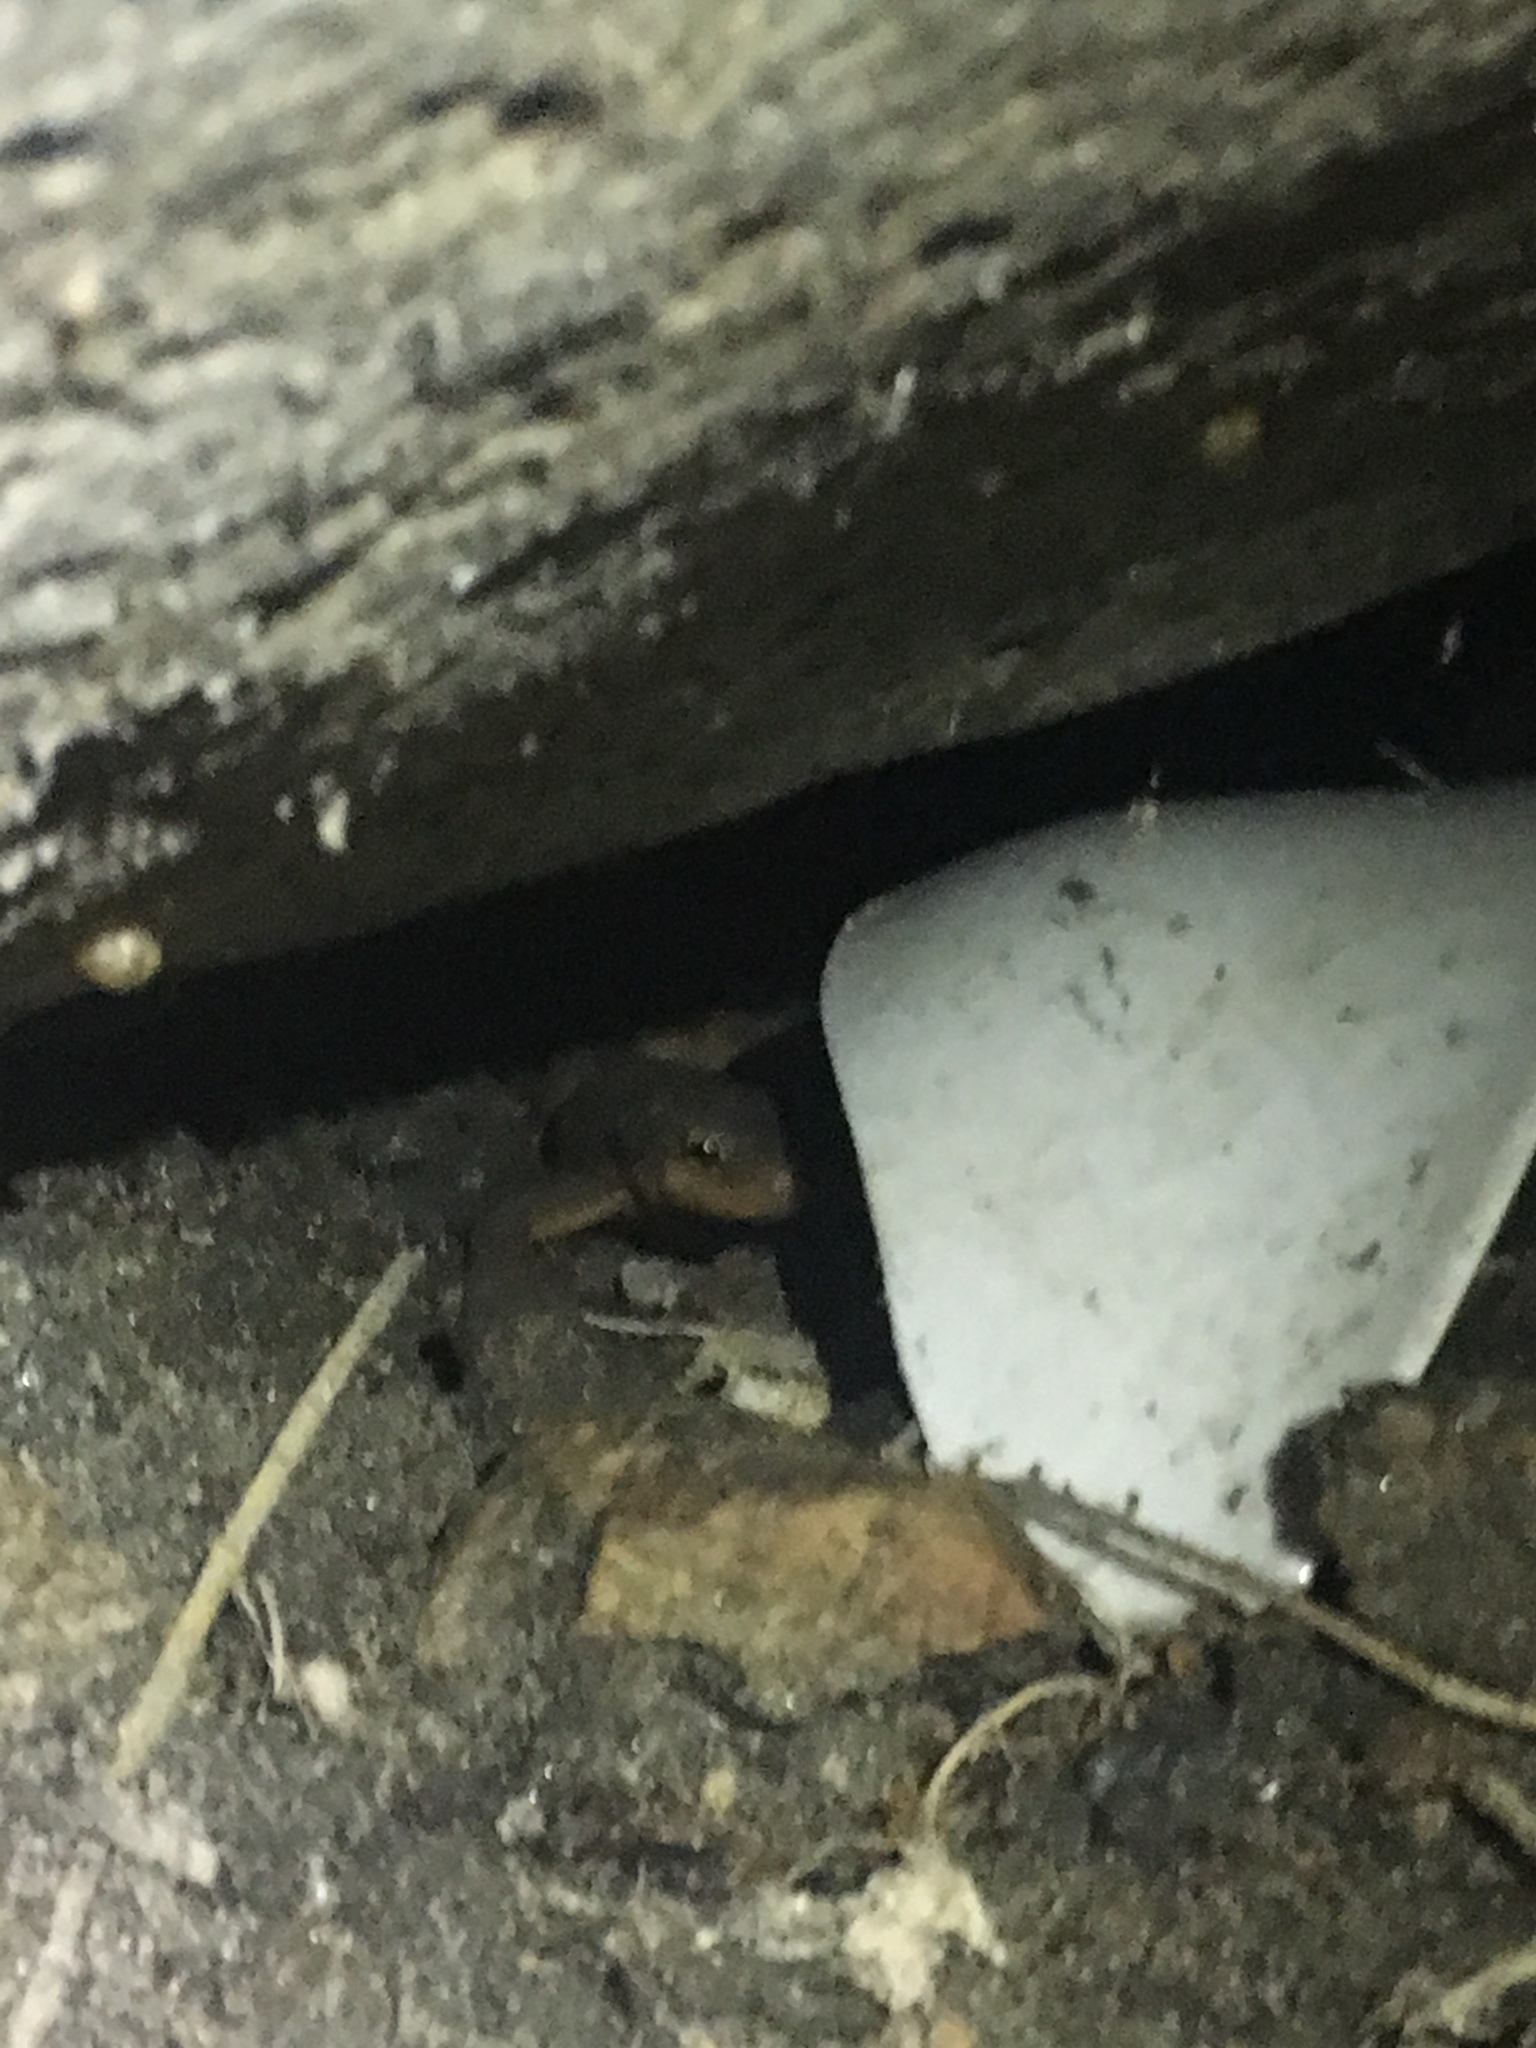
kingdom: Animalia
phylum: Chordata
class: Amphibia
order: Caudata
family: Salamandridae
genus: Taricha
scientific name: Taricha torosa
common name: California newt
